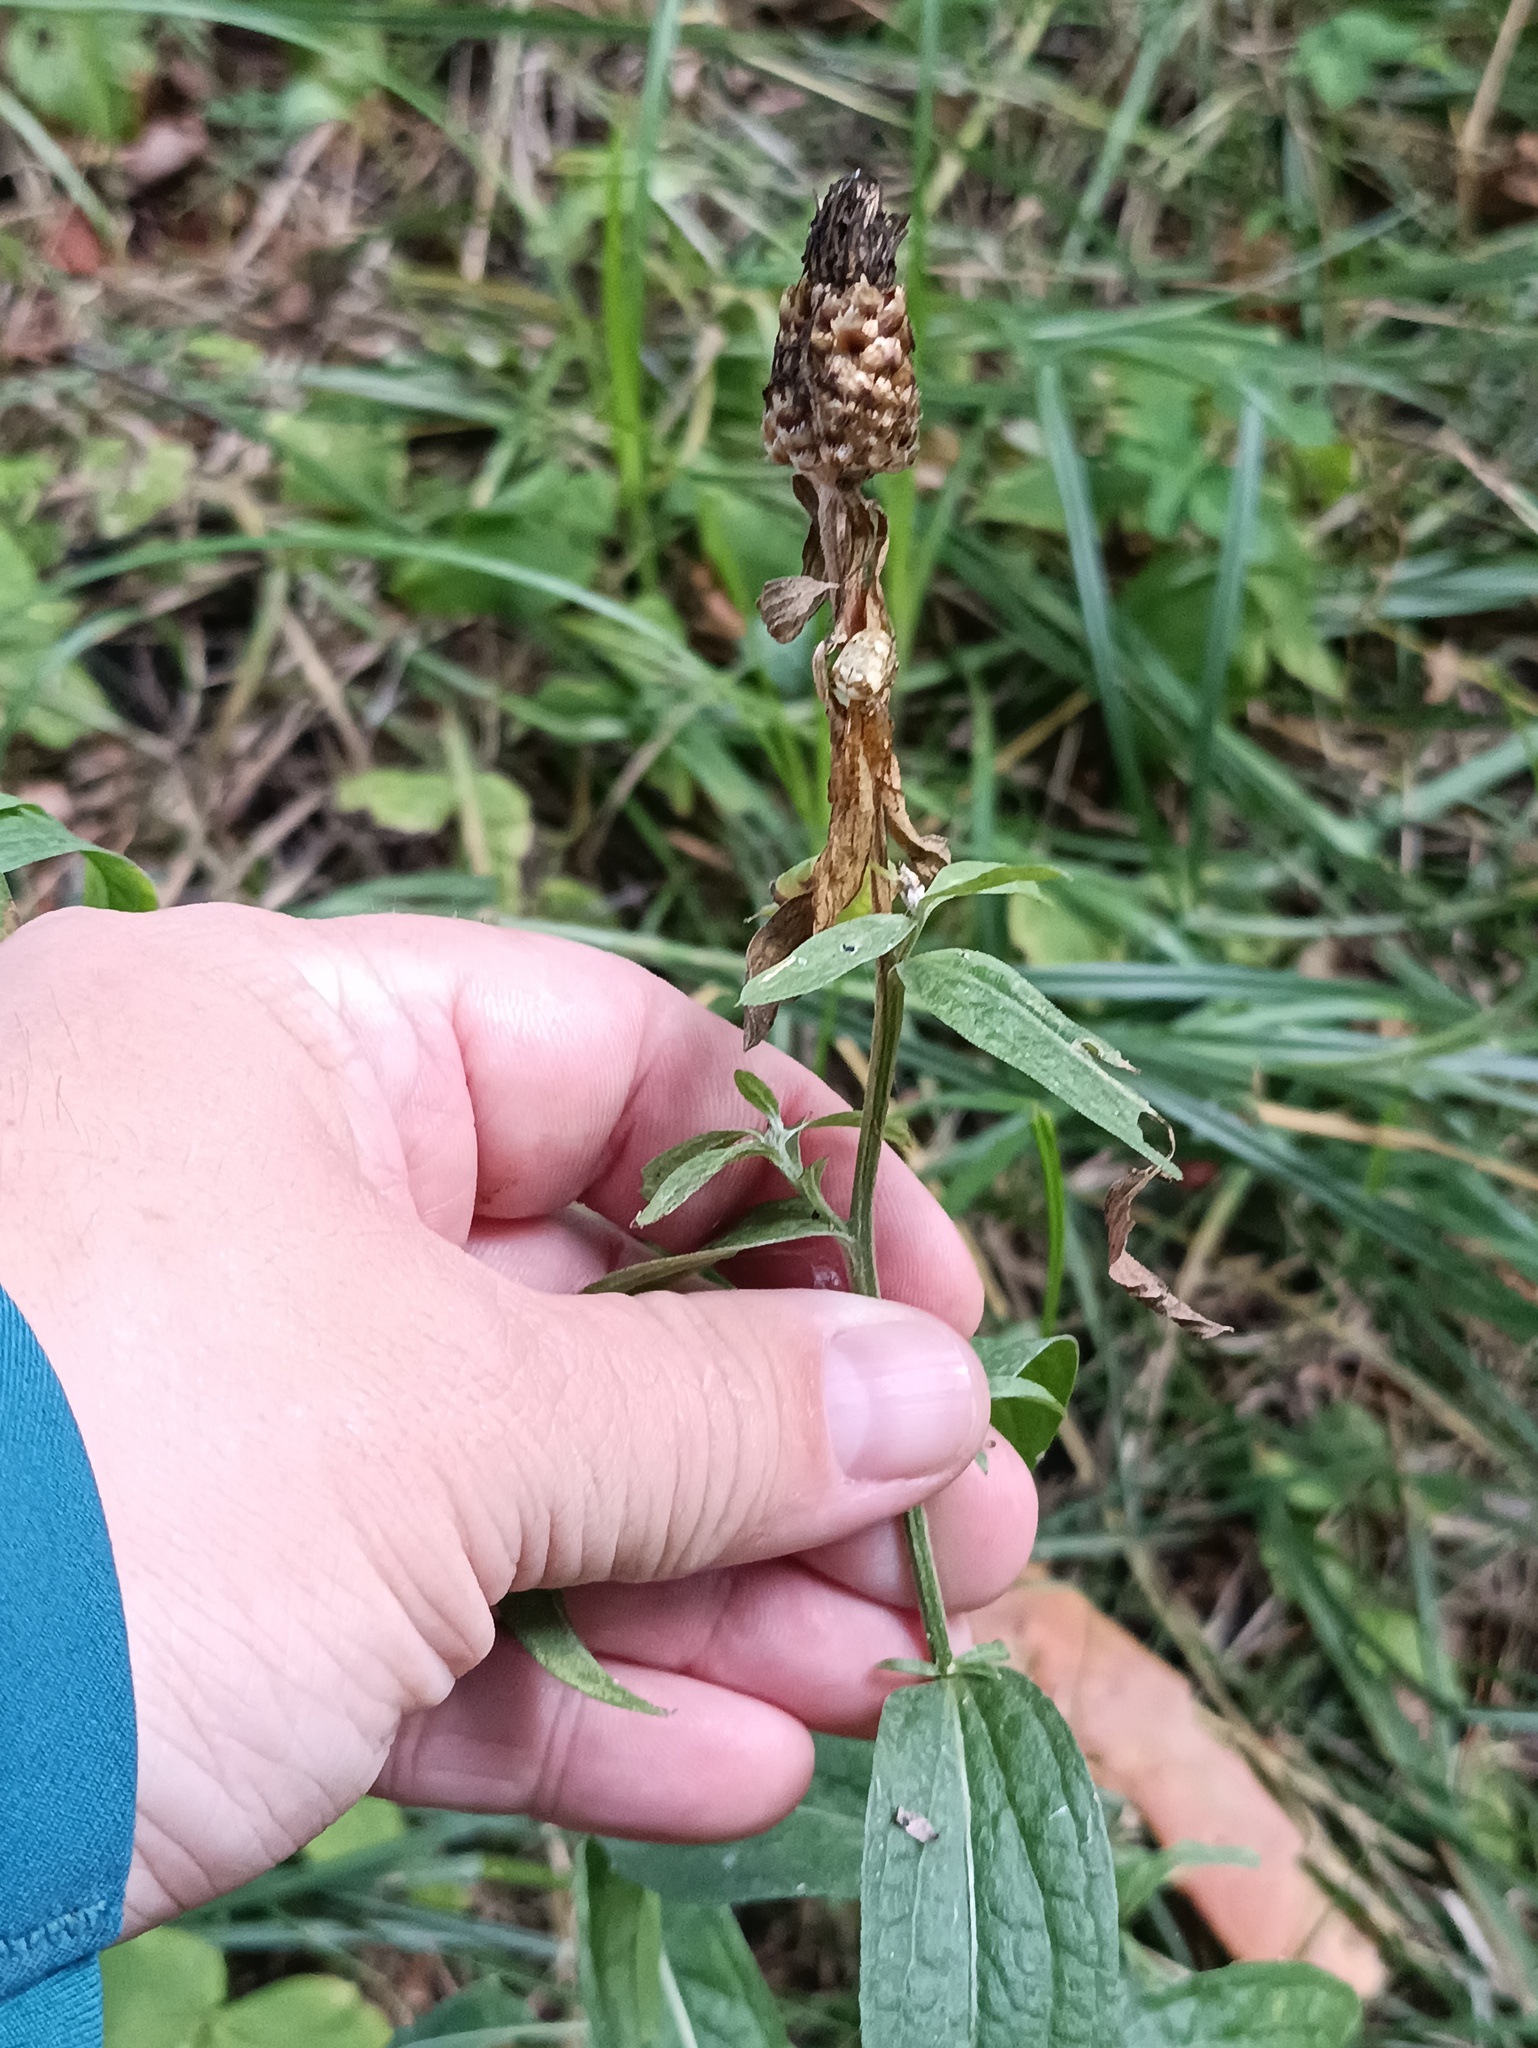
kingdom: Plantae
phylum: Tracheophyta
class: Magnoliopsida
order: Asterales
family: Asteraceae
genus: Centaurea
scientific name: Centaurea jacea
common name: Brown knapweed
